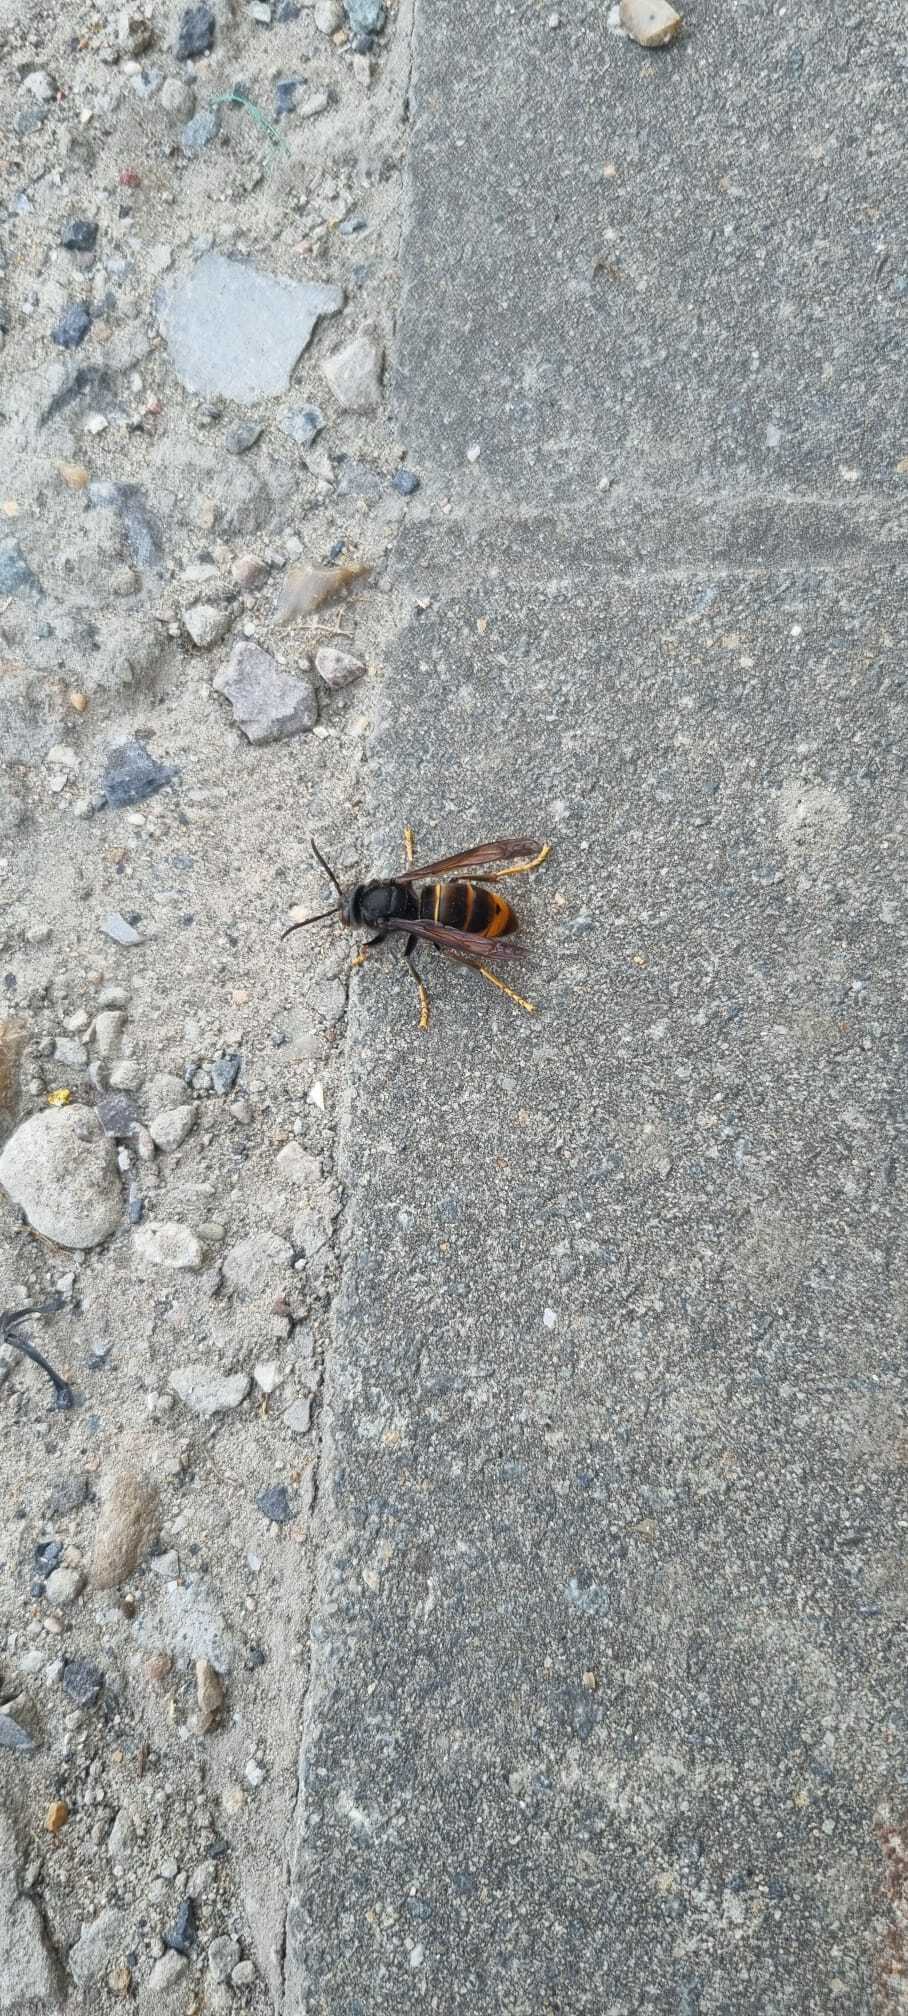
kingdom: Animalia
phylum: Arthropoda
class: Insecta
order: Hymenoptera
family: Vespidae
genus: Vespa
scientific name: Vespa velutina
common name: Asian hornet
